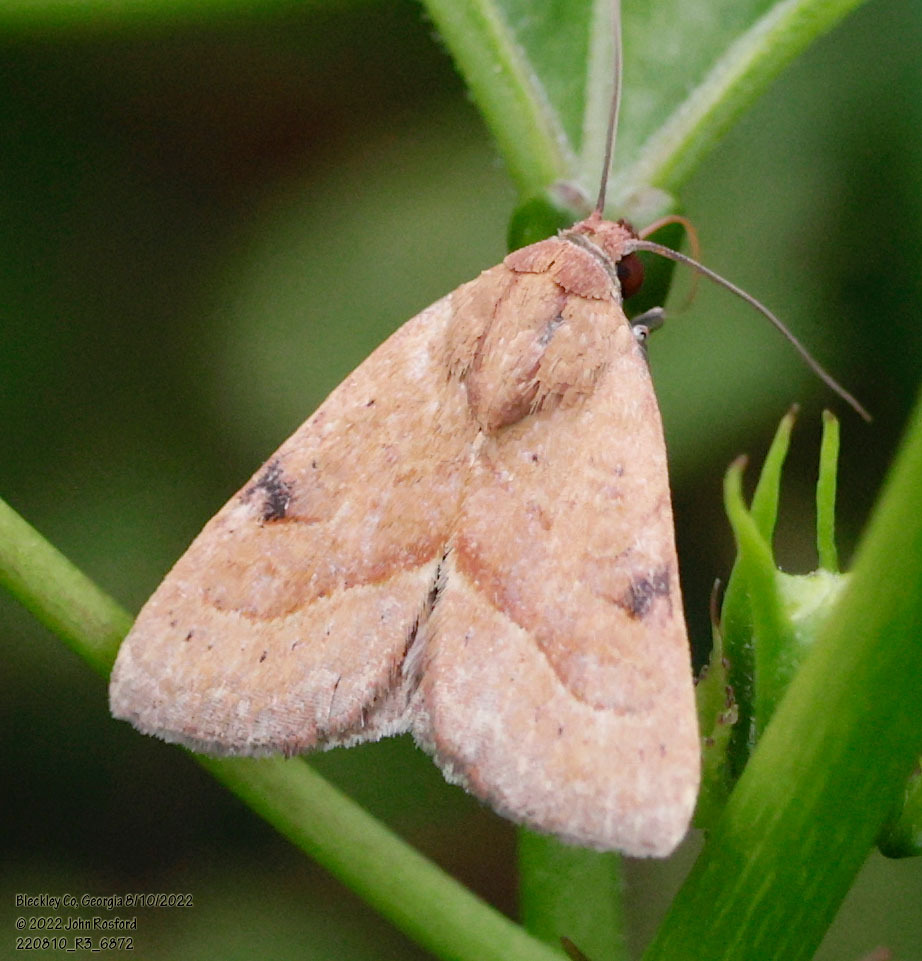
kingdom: Animalia
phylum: Arthropoda
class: Insecta
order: Lepidoptera
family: Noctuidae
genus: Galgula
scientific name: Galgula partita
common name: Wedgeling
